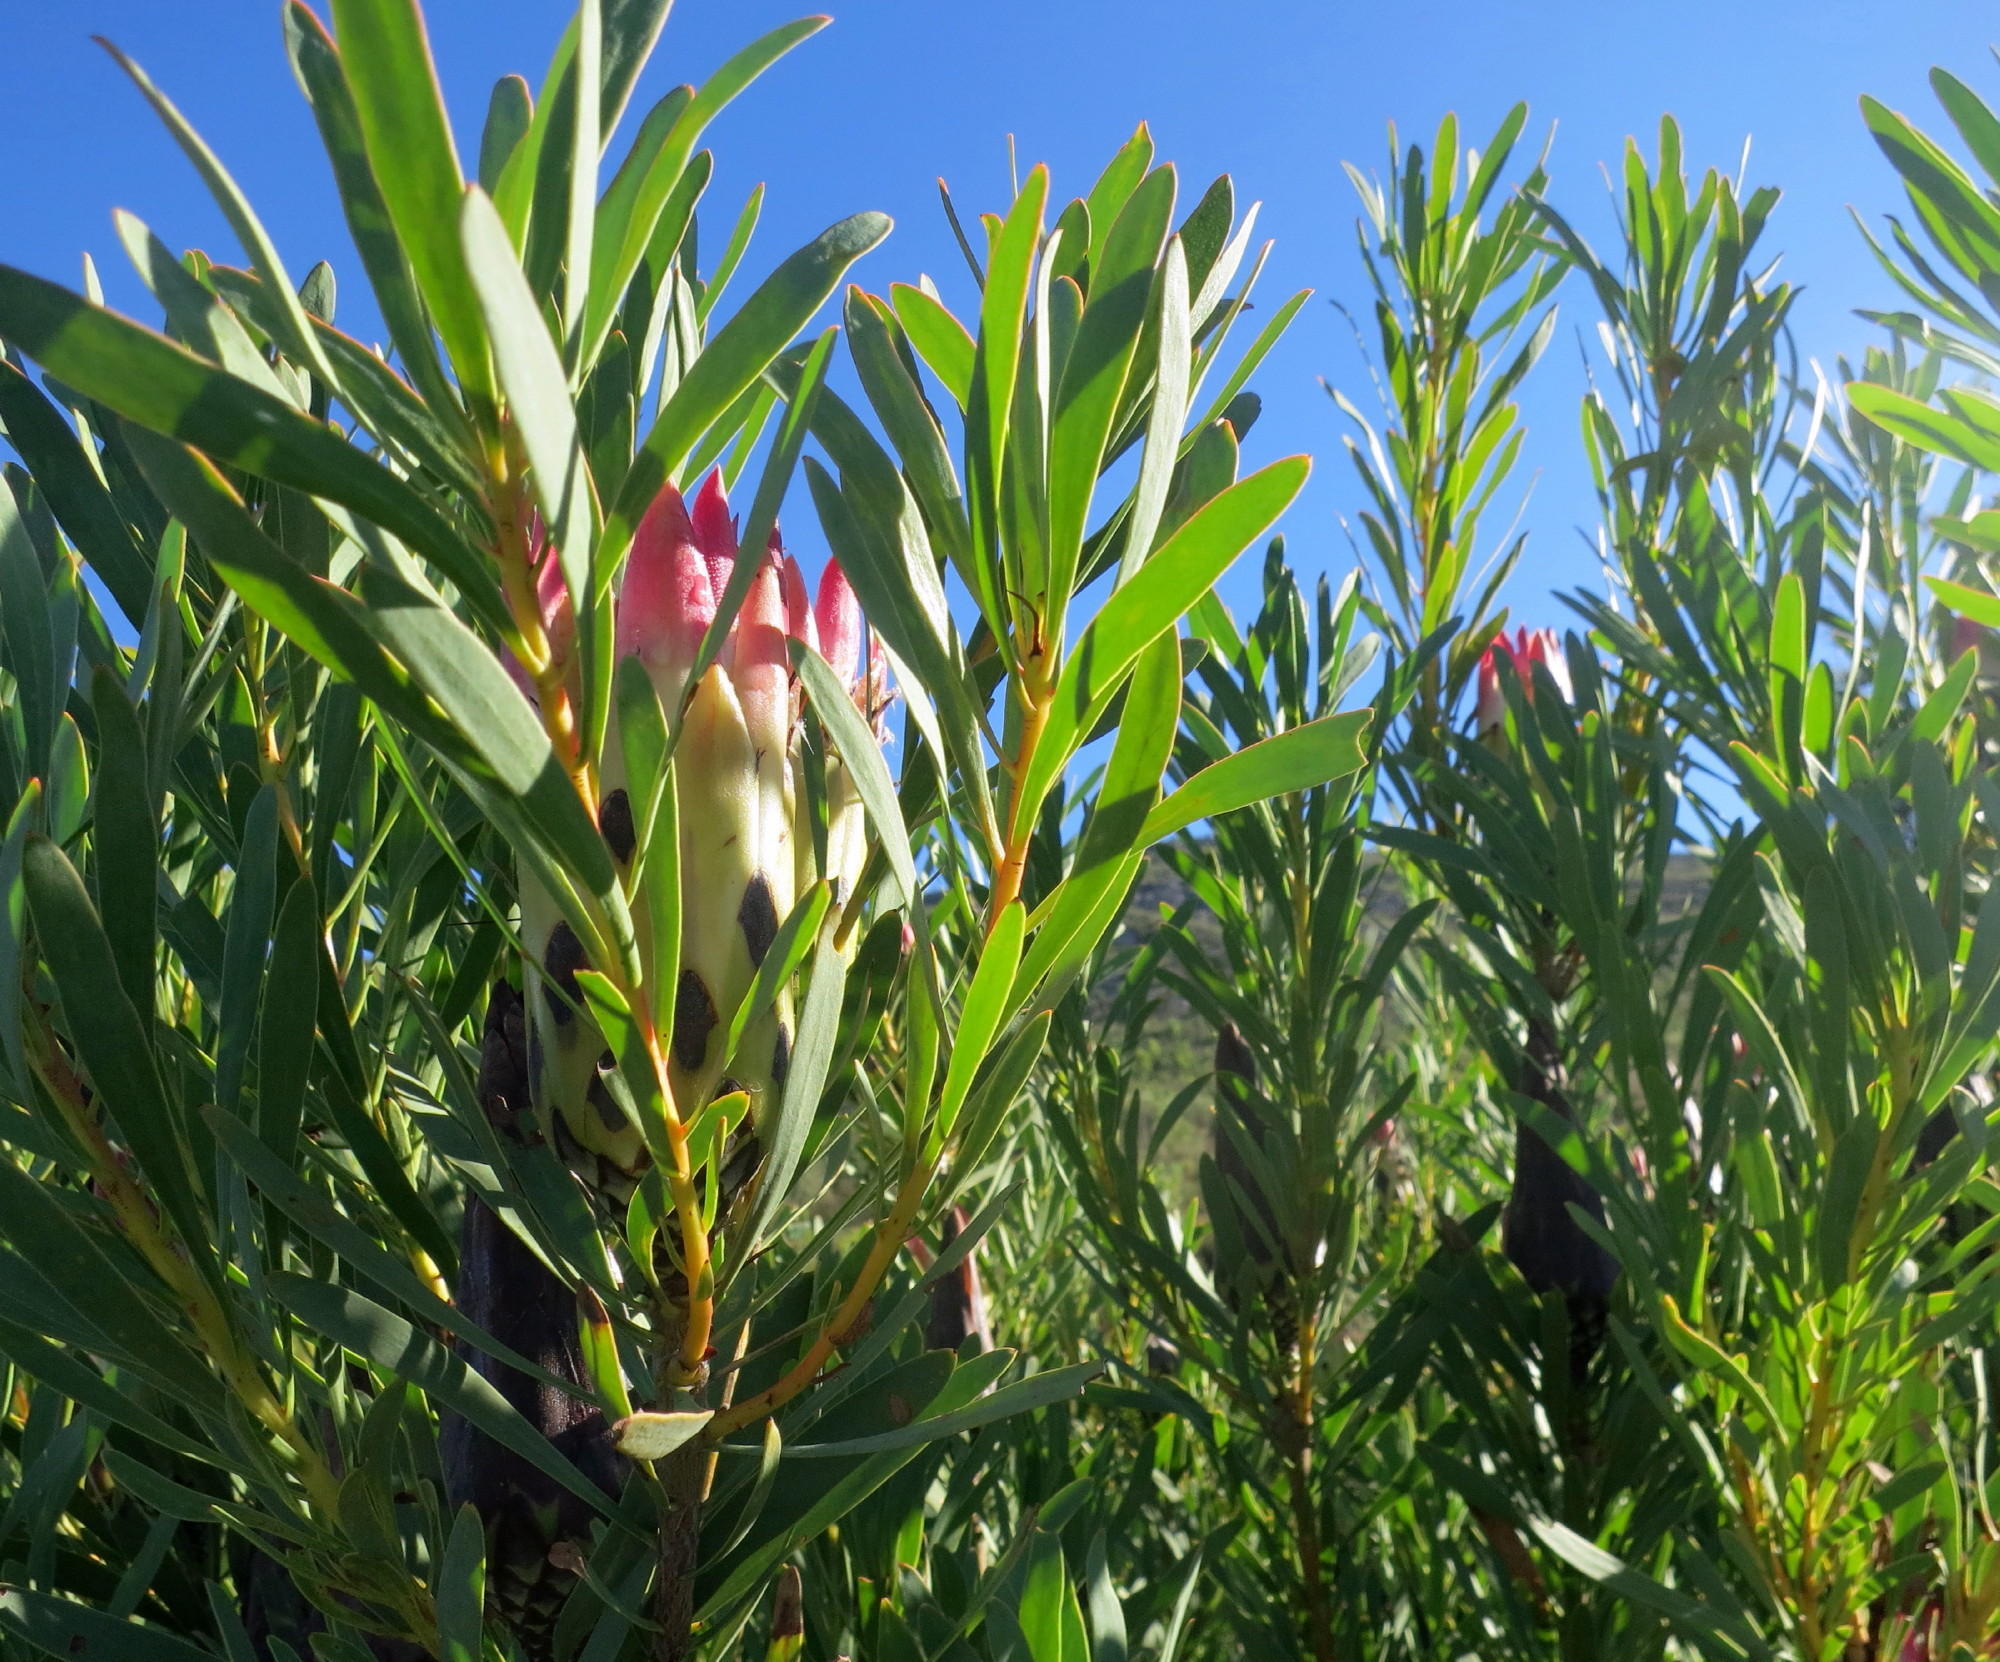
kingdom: Plantae
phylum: Tracheophyta
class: Magnoliopsida
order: Proteales
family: Proteaceae
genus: Protea
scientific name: Protea repens
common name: Sugarbush
